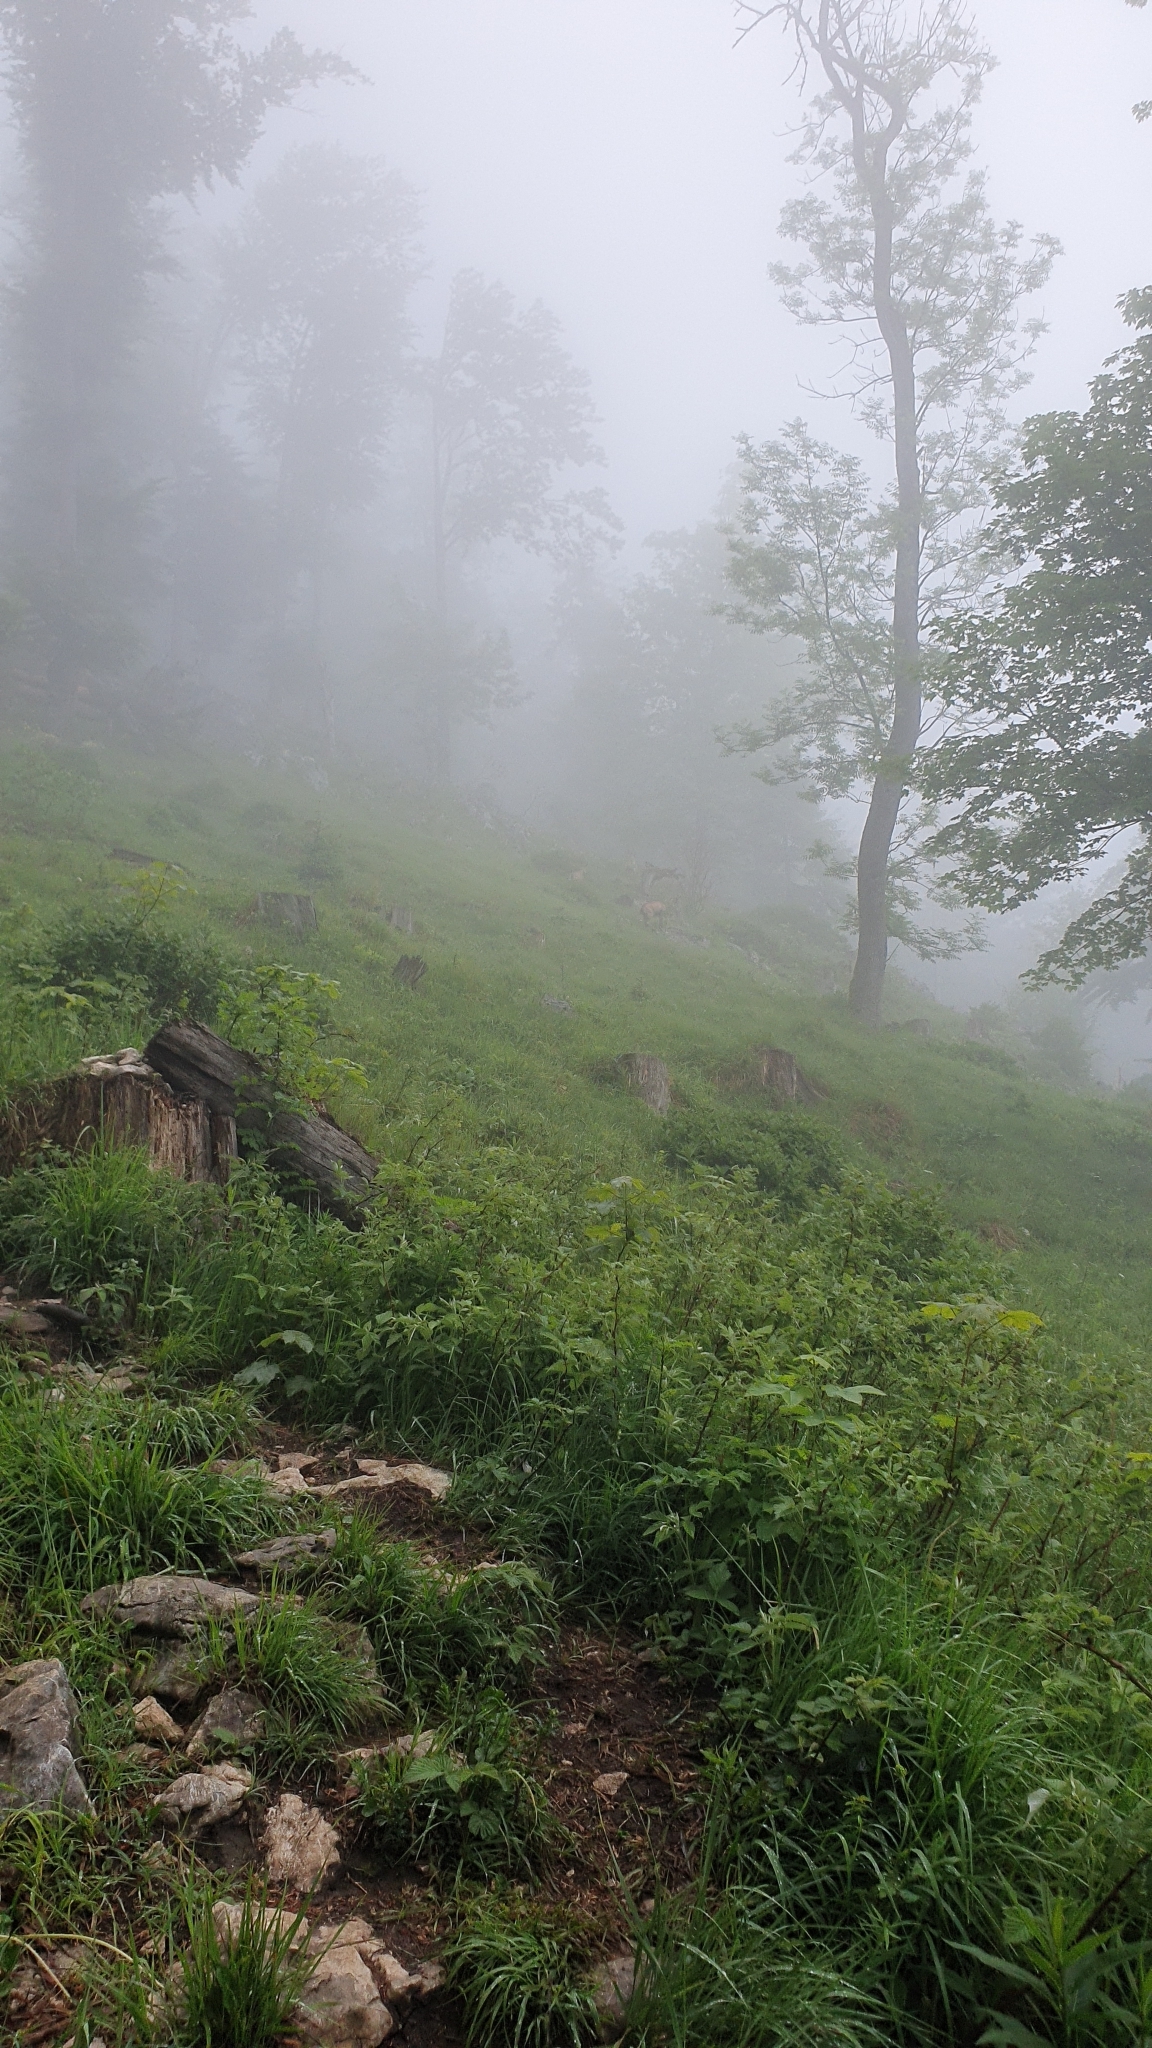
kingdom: Animalia
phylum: Chordata
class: Mammalia
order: Artiodactyla
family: Bovidae
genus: Rupicapra
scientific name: Rupicapra rupicapra
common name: Chamois
